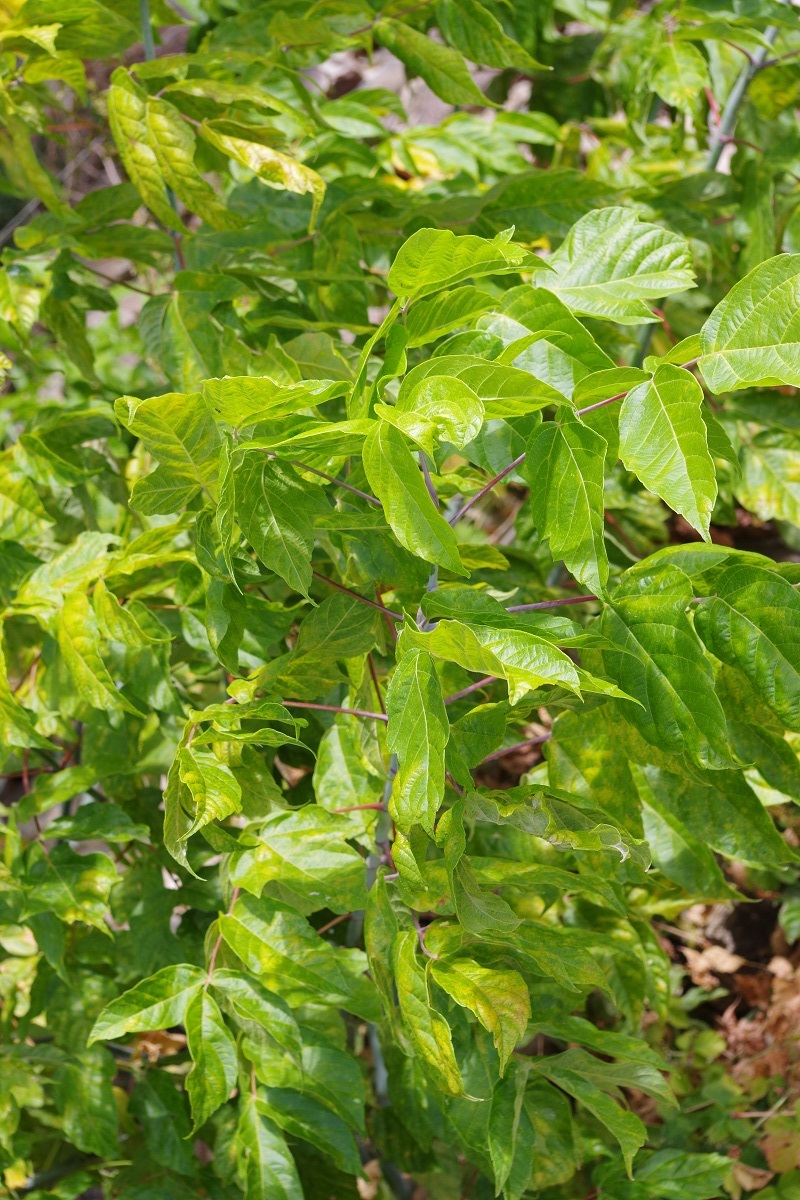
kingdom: Plantae
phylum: Tracheophyta
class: Magnoliopsida
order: Sapindales
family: Sapindaceae
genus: Acer
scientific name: Acer negundo
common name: Ashleaf maple
